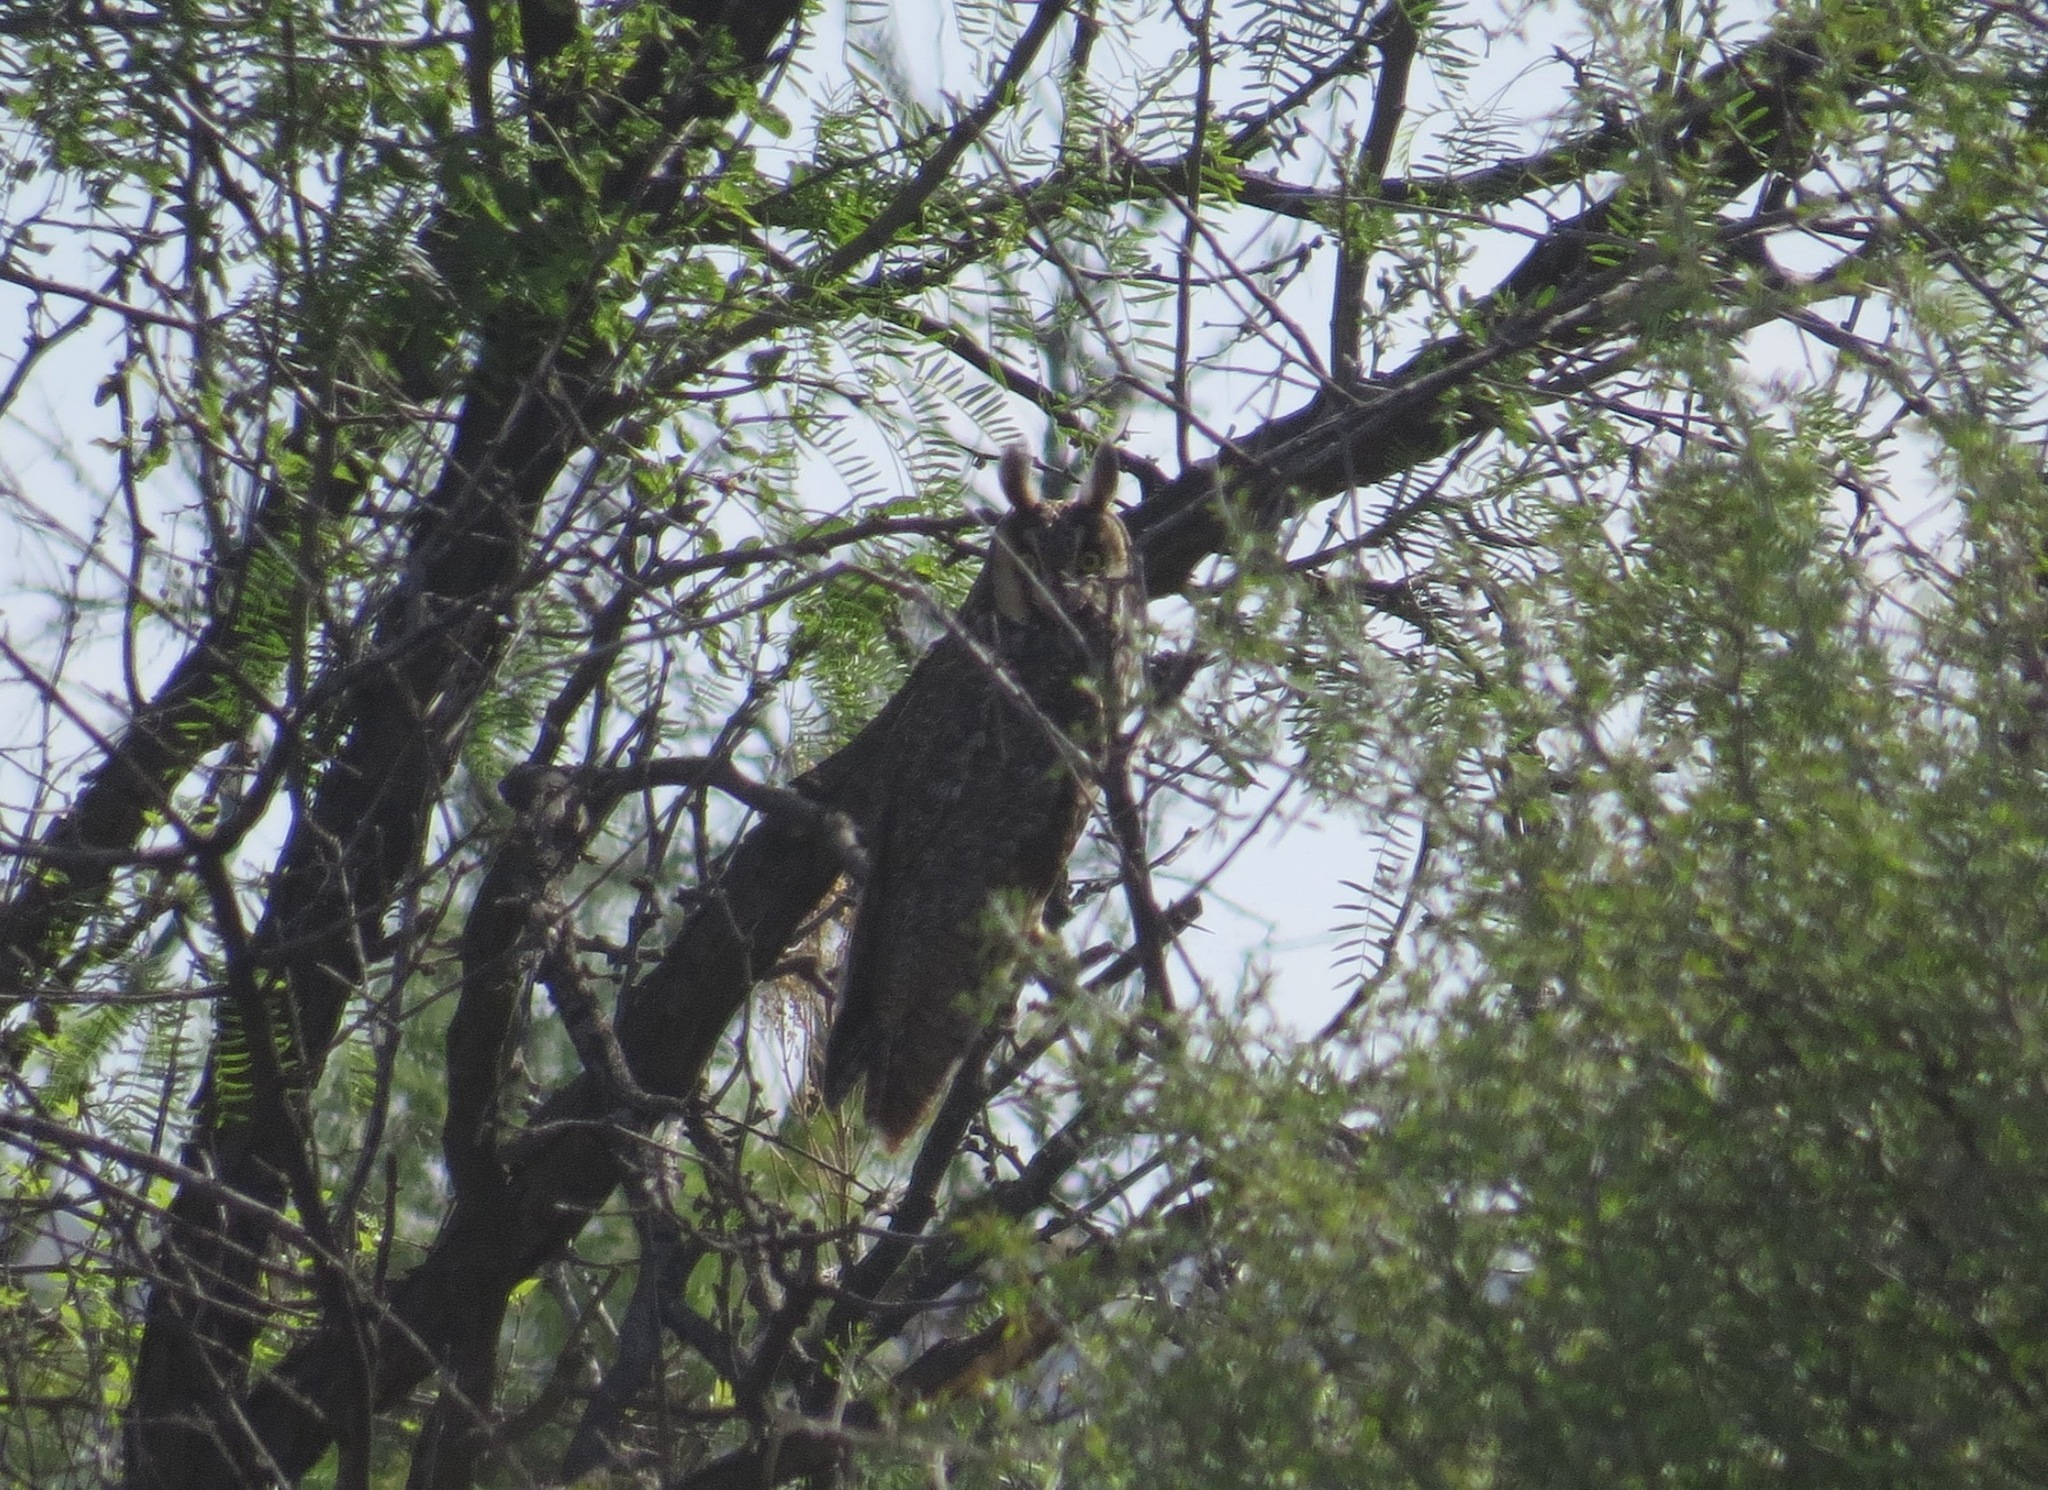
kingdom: Animalia
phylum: Chordata
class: Aves
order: Strigiformes
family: Strigidae
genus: Asio
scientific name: Asio otus
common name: Long-eared owl
